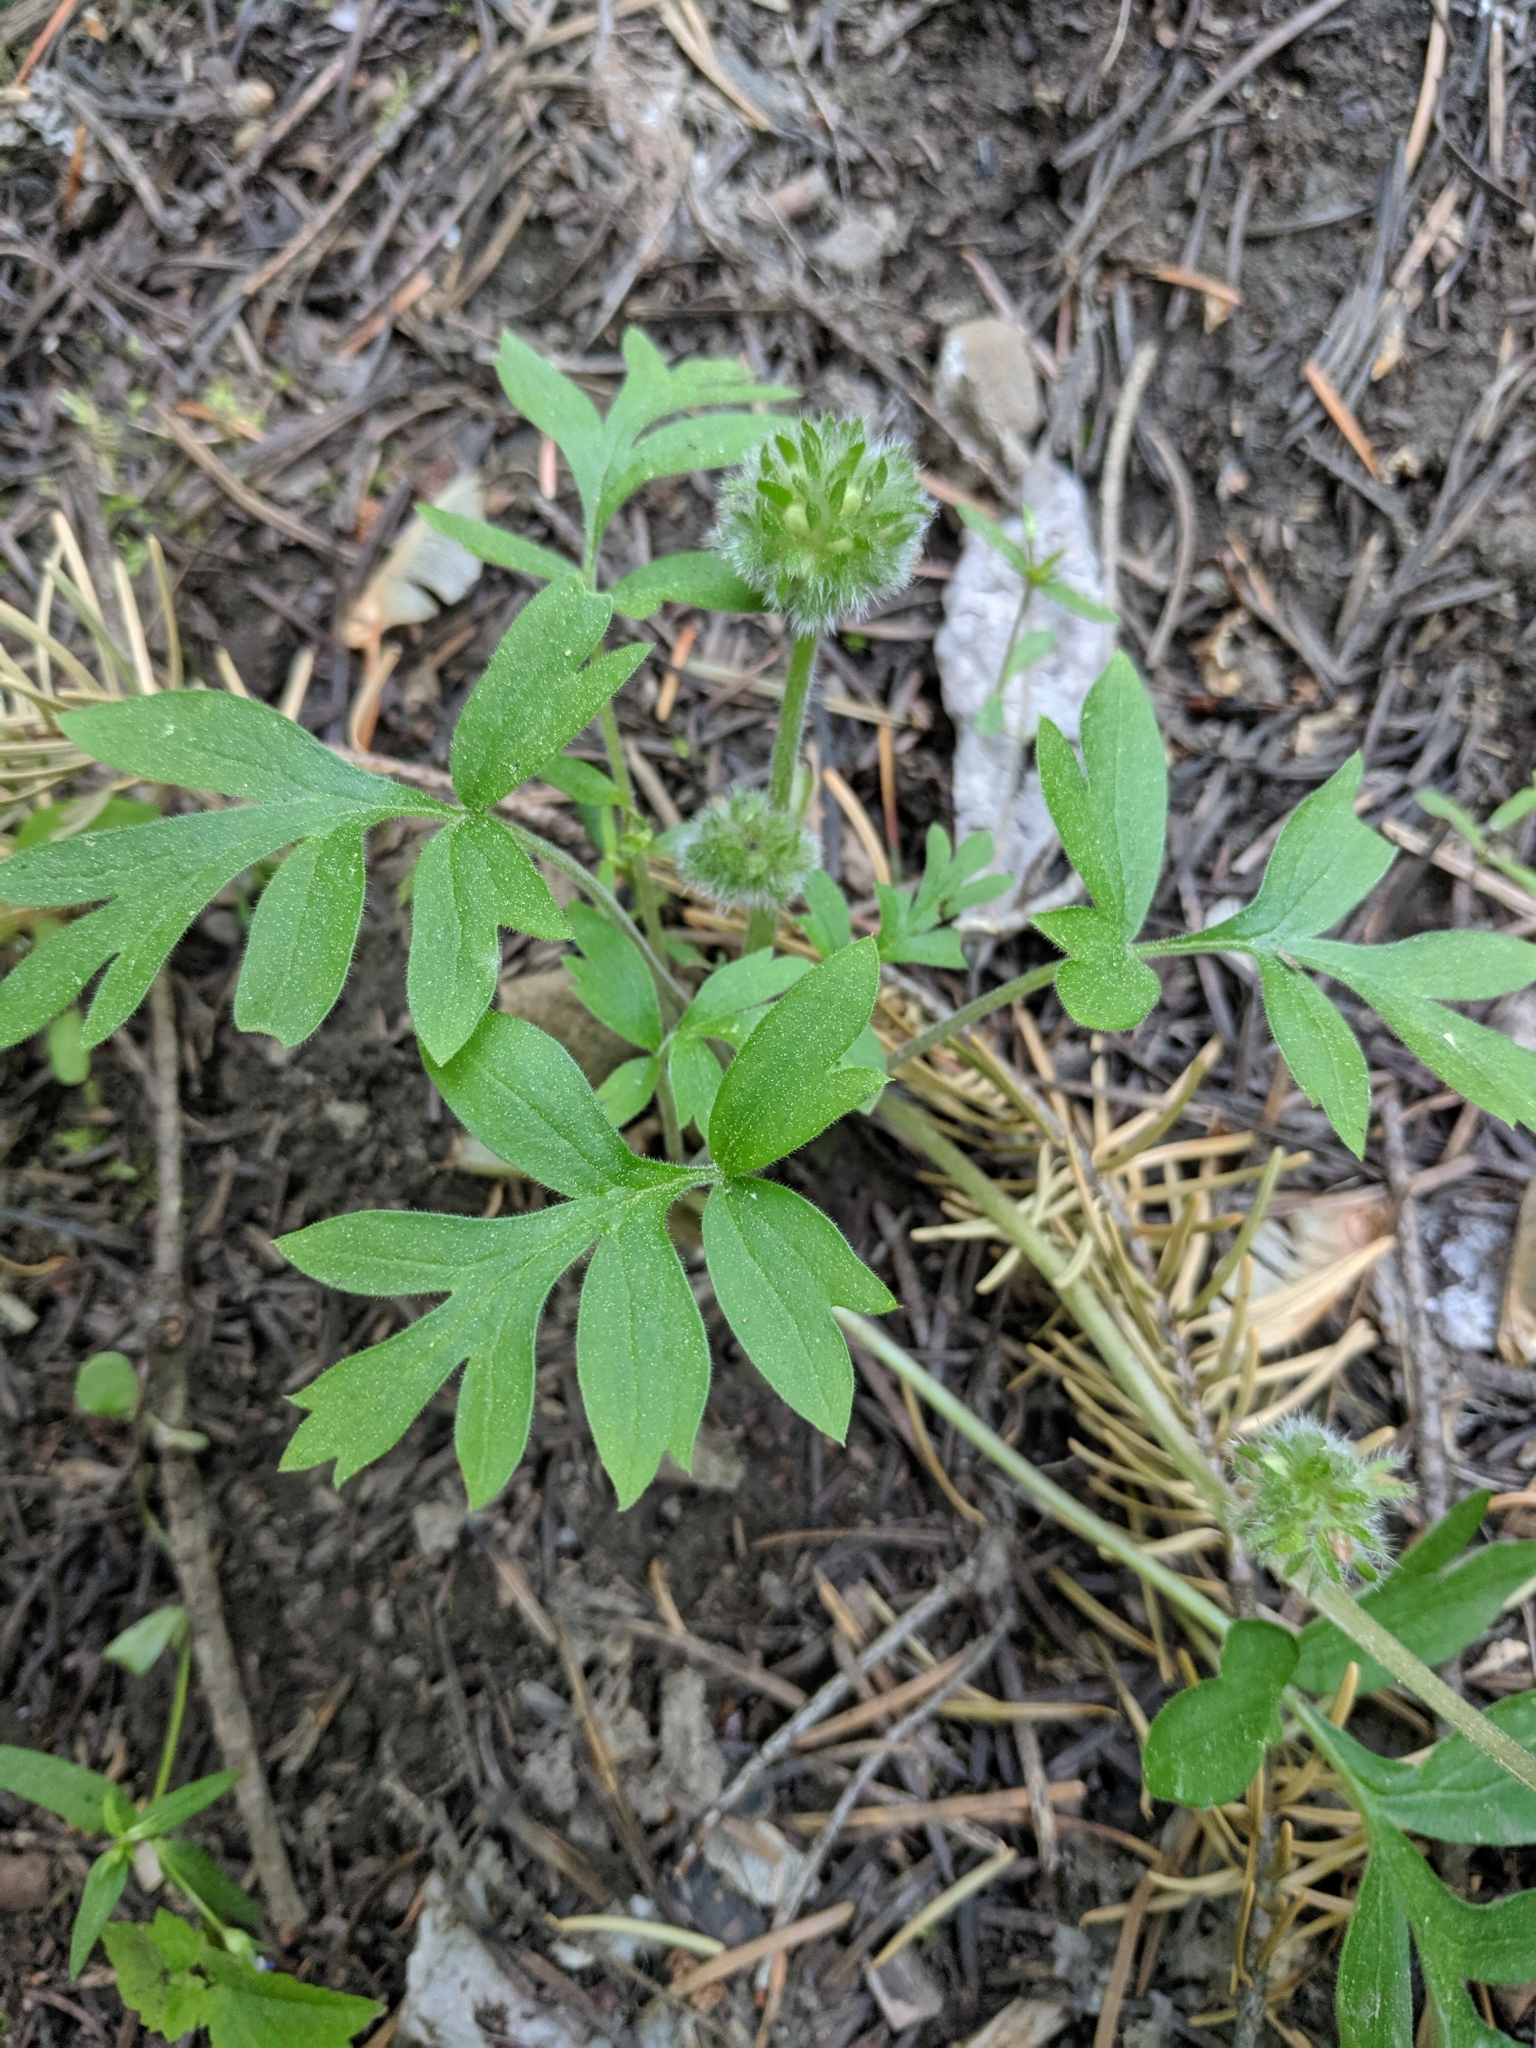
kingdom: Plantae
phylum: Tracheophyta
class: Magnoliopsida
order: Boraginales
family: Hydrophyllaceae
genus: Hydrophyllum
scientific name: Hydrophyllum capitatum
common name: Woollen-breeches
